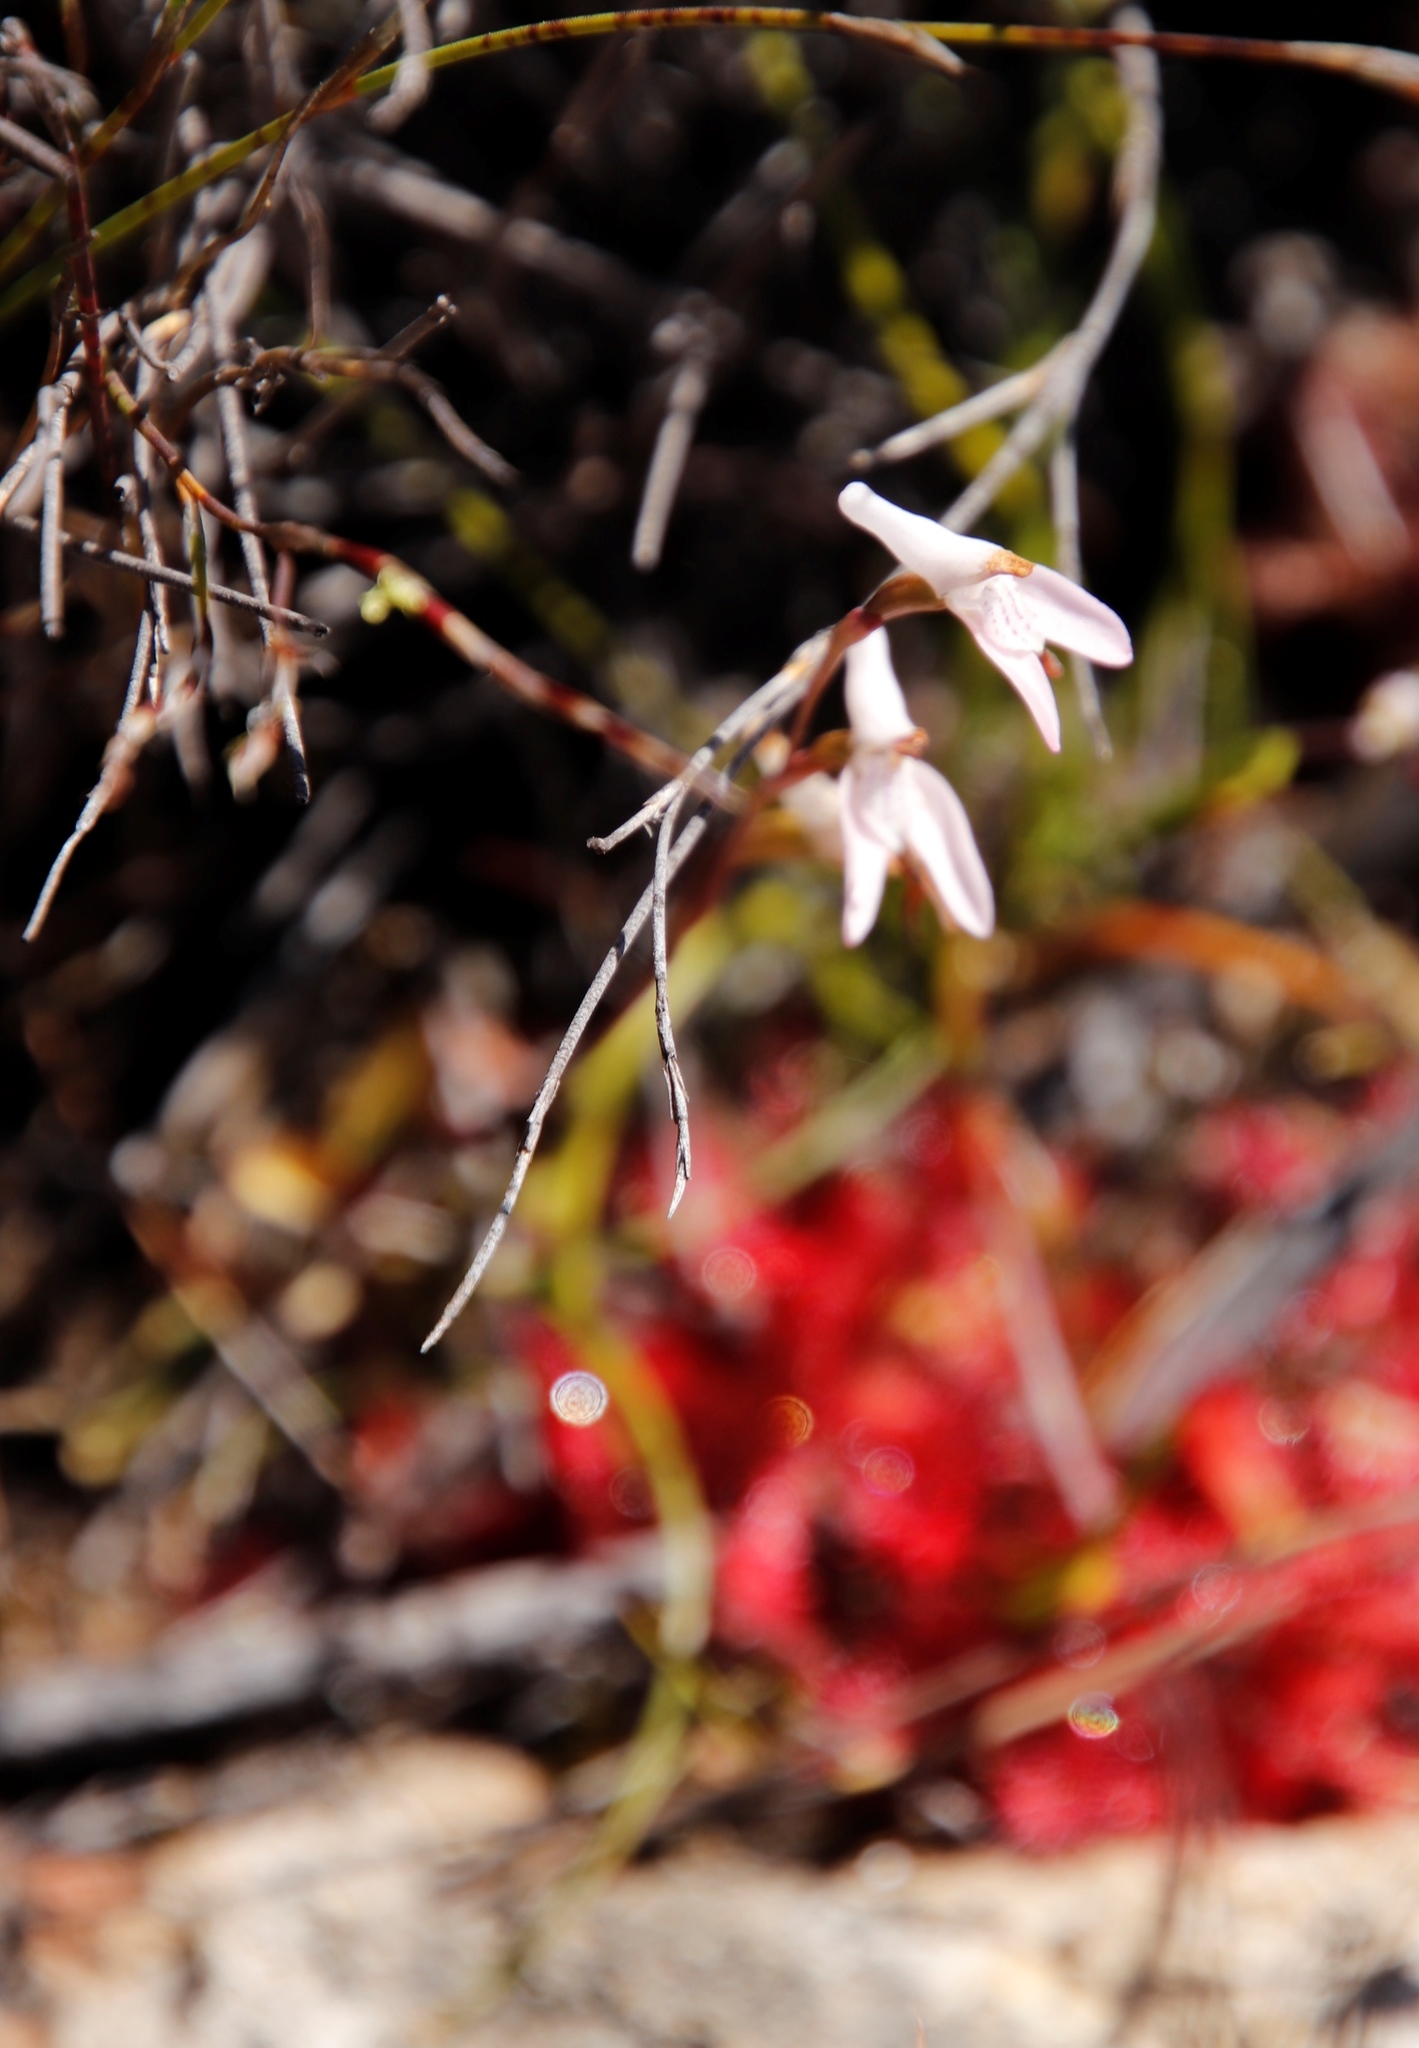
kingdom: Plantae
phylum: Tracheophyta
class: Liliopsida
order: Asparagales
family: Orchidaceae
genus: Disa
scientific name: Disa inflexa
